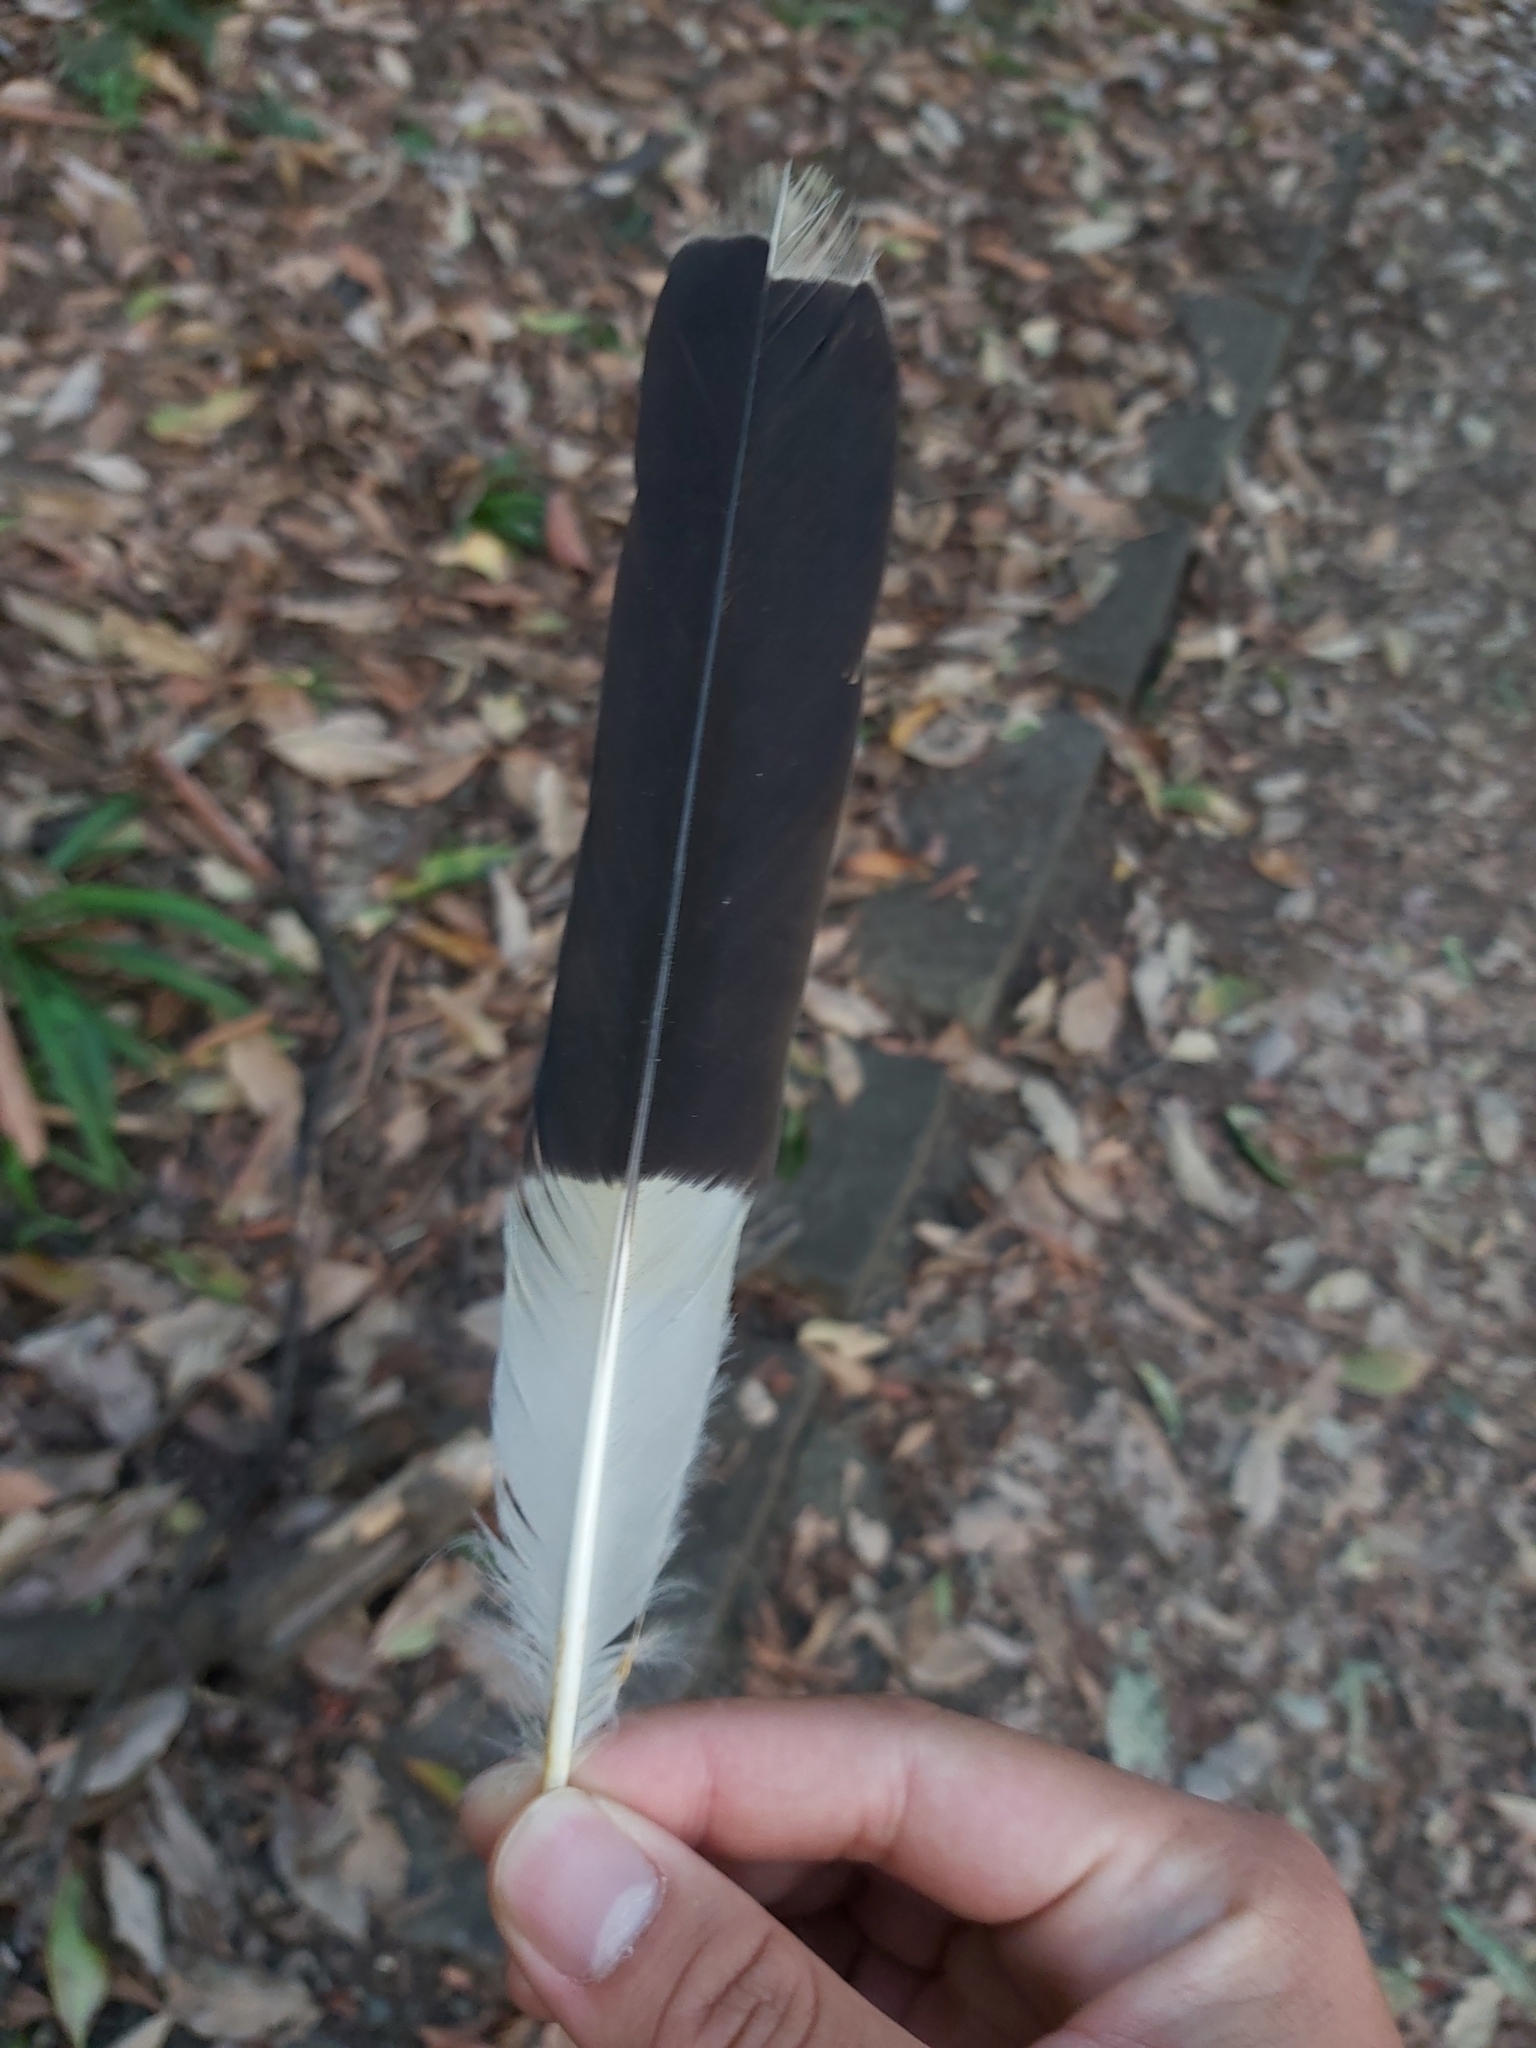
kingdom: Animalia
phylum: Chordata
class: Aves
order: Passeriformes
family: Cracticidae
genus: Strepera
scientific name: Strepera graculina
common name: Pied currawong
